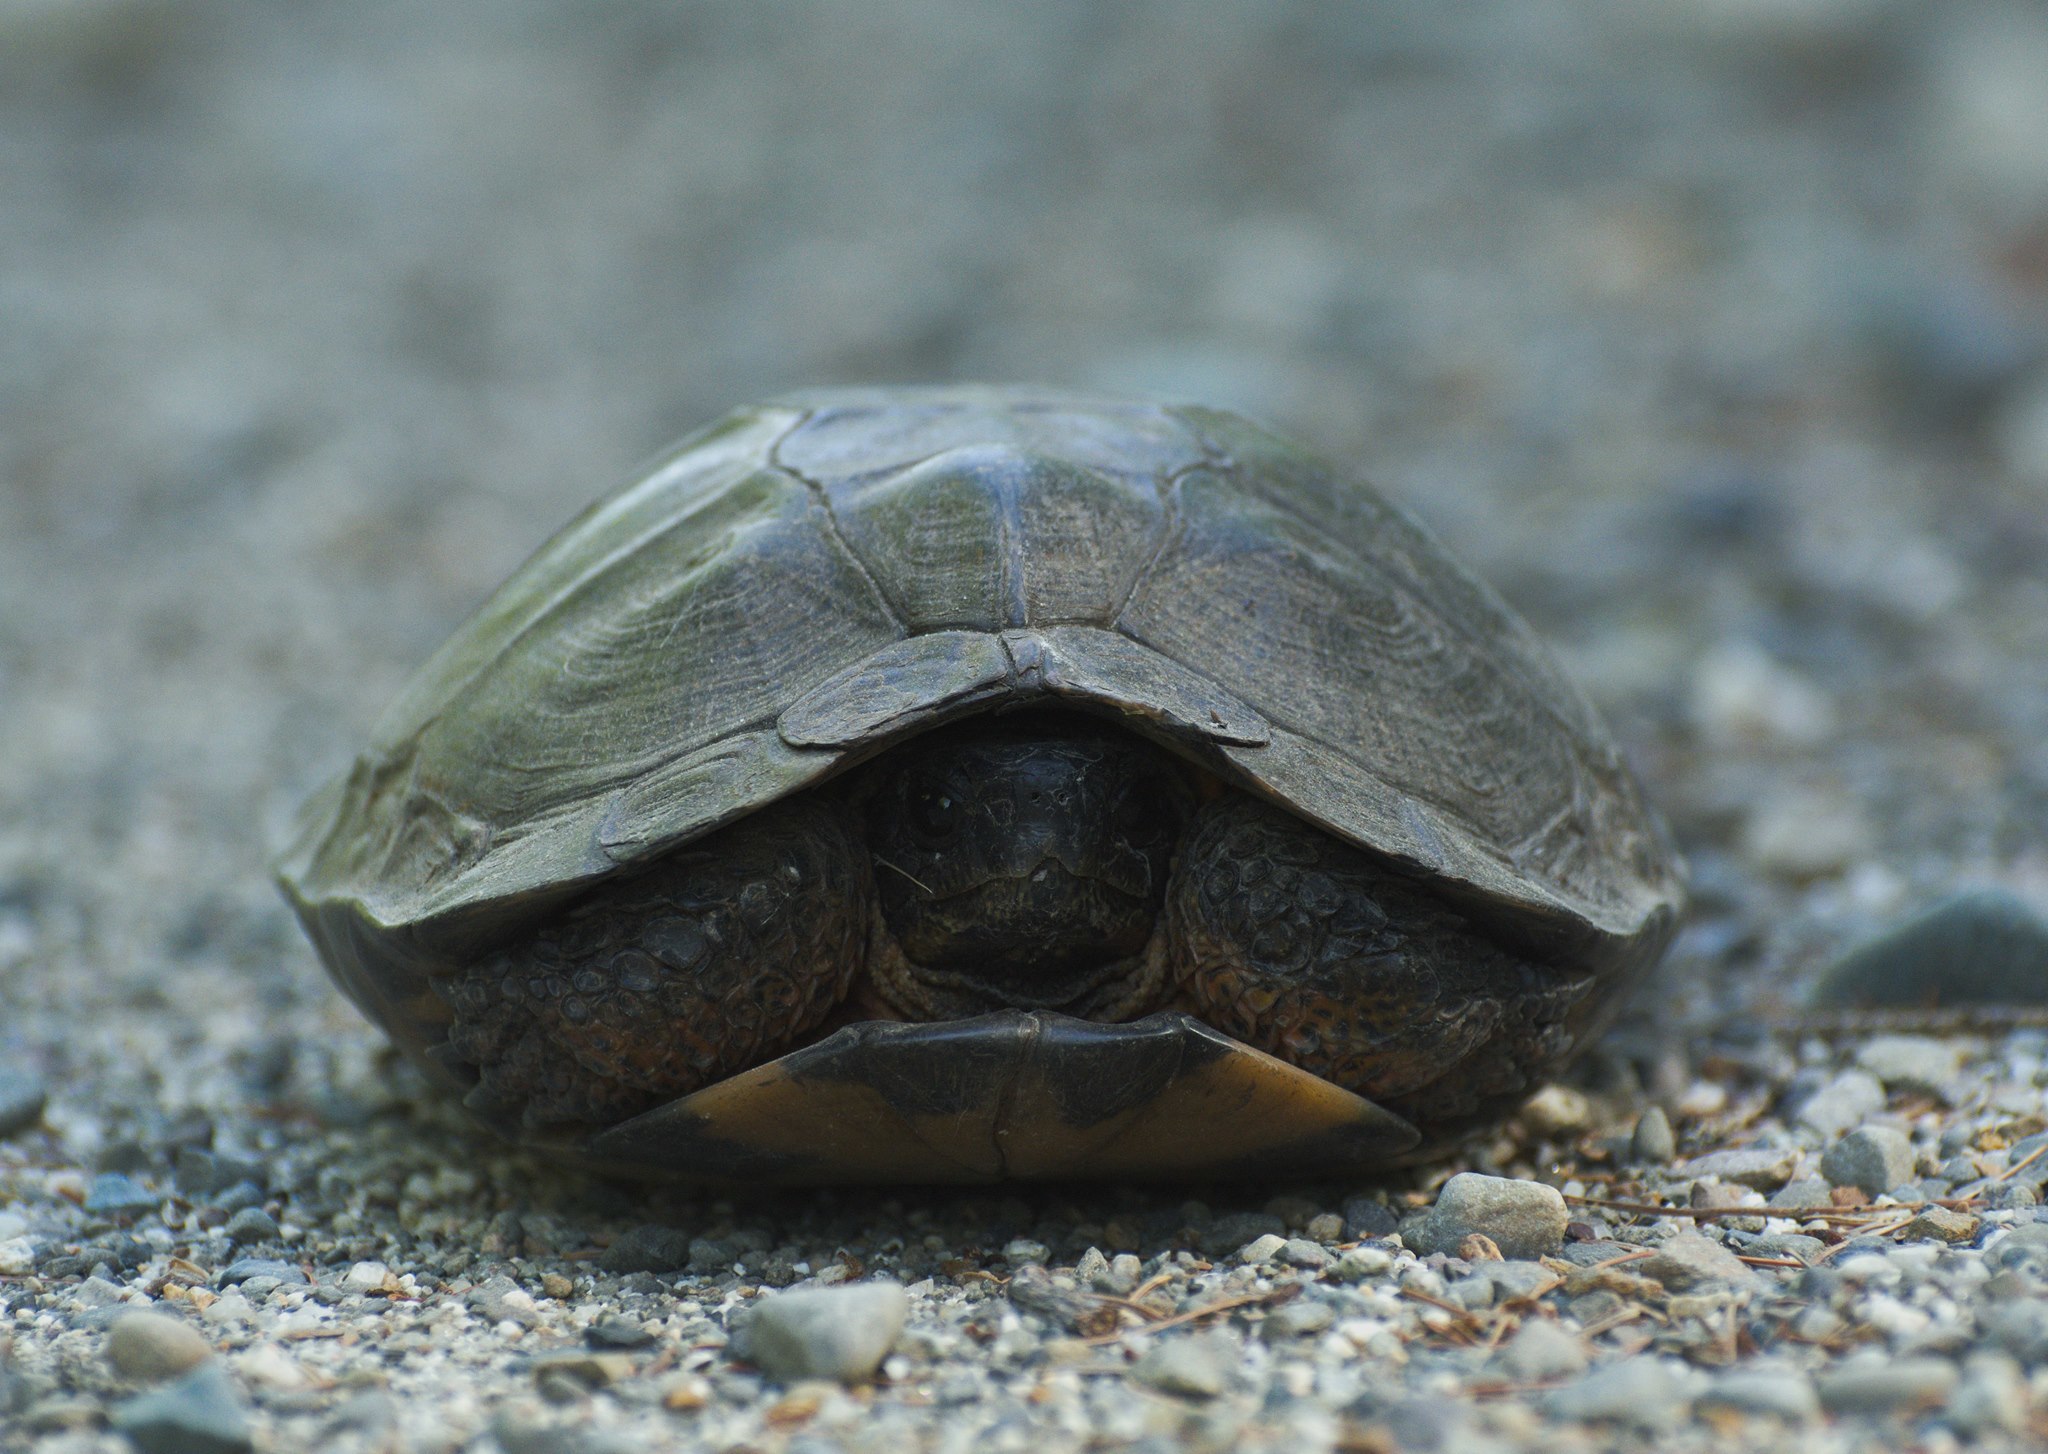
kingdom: Animalia
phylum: Chordata
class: Testudines
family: Emydidae
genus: Glyptemys
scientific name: Glyptemys insculpta
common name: Wood turtle
